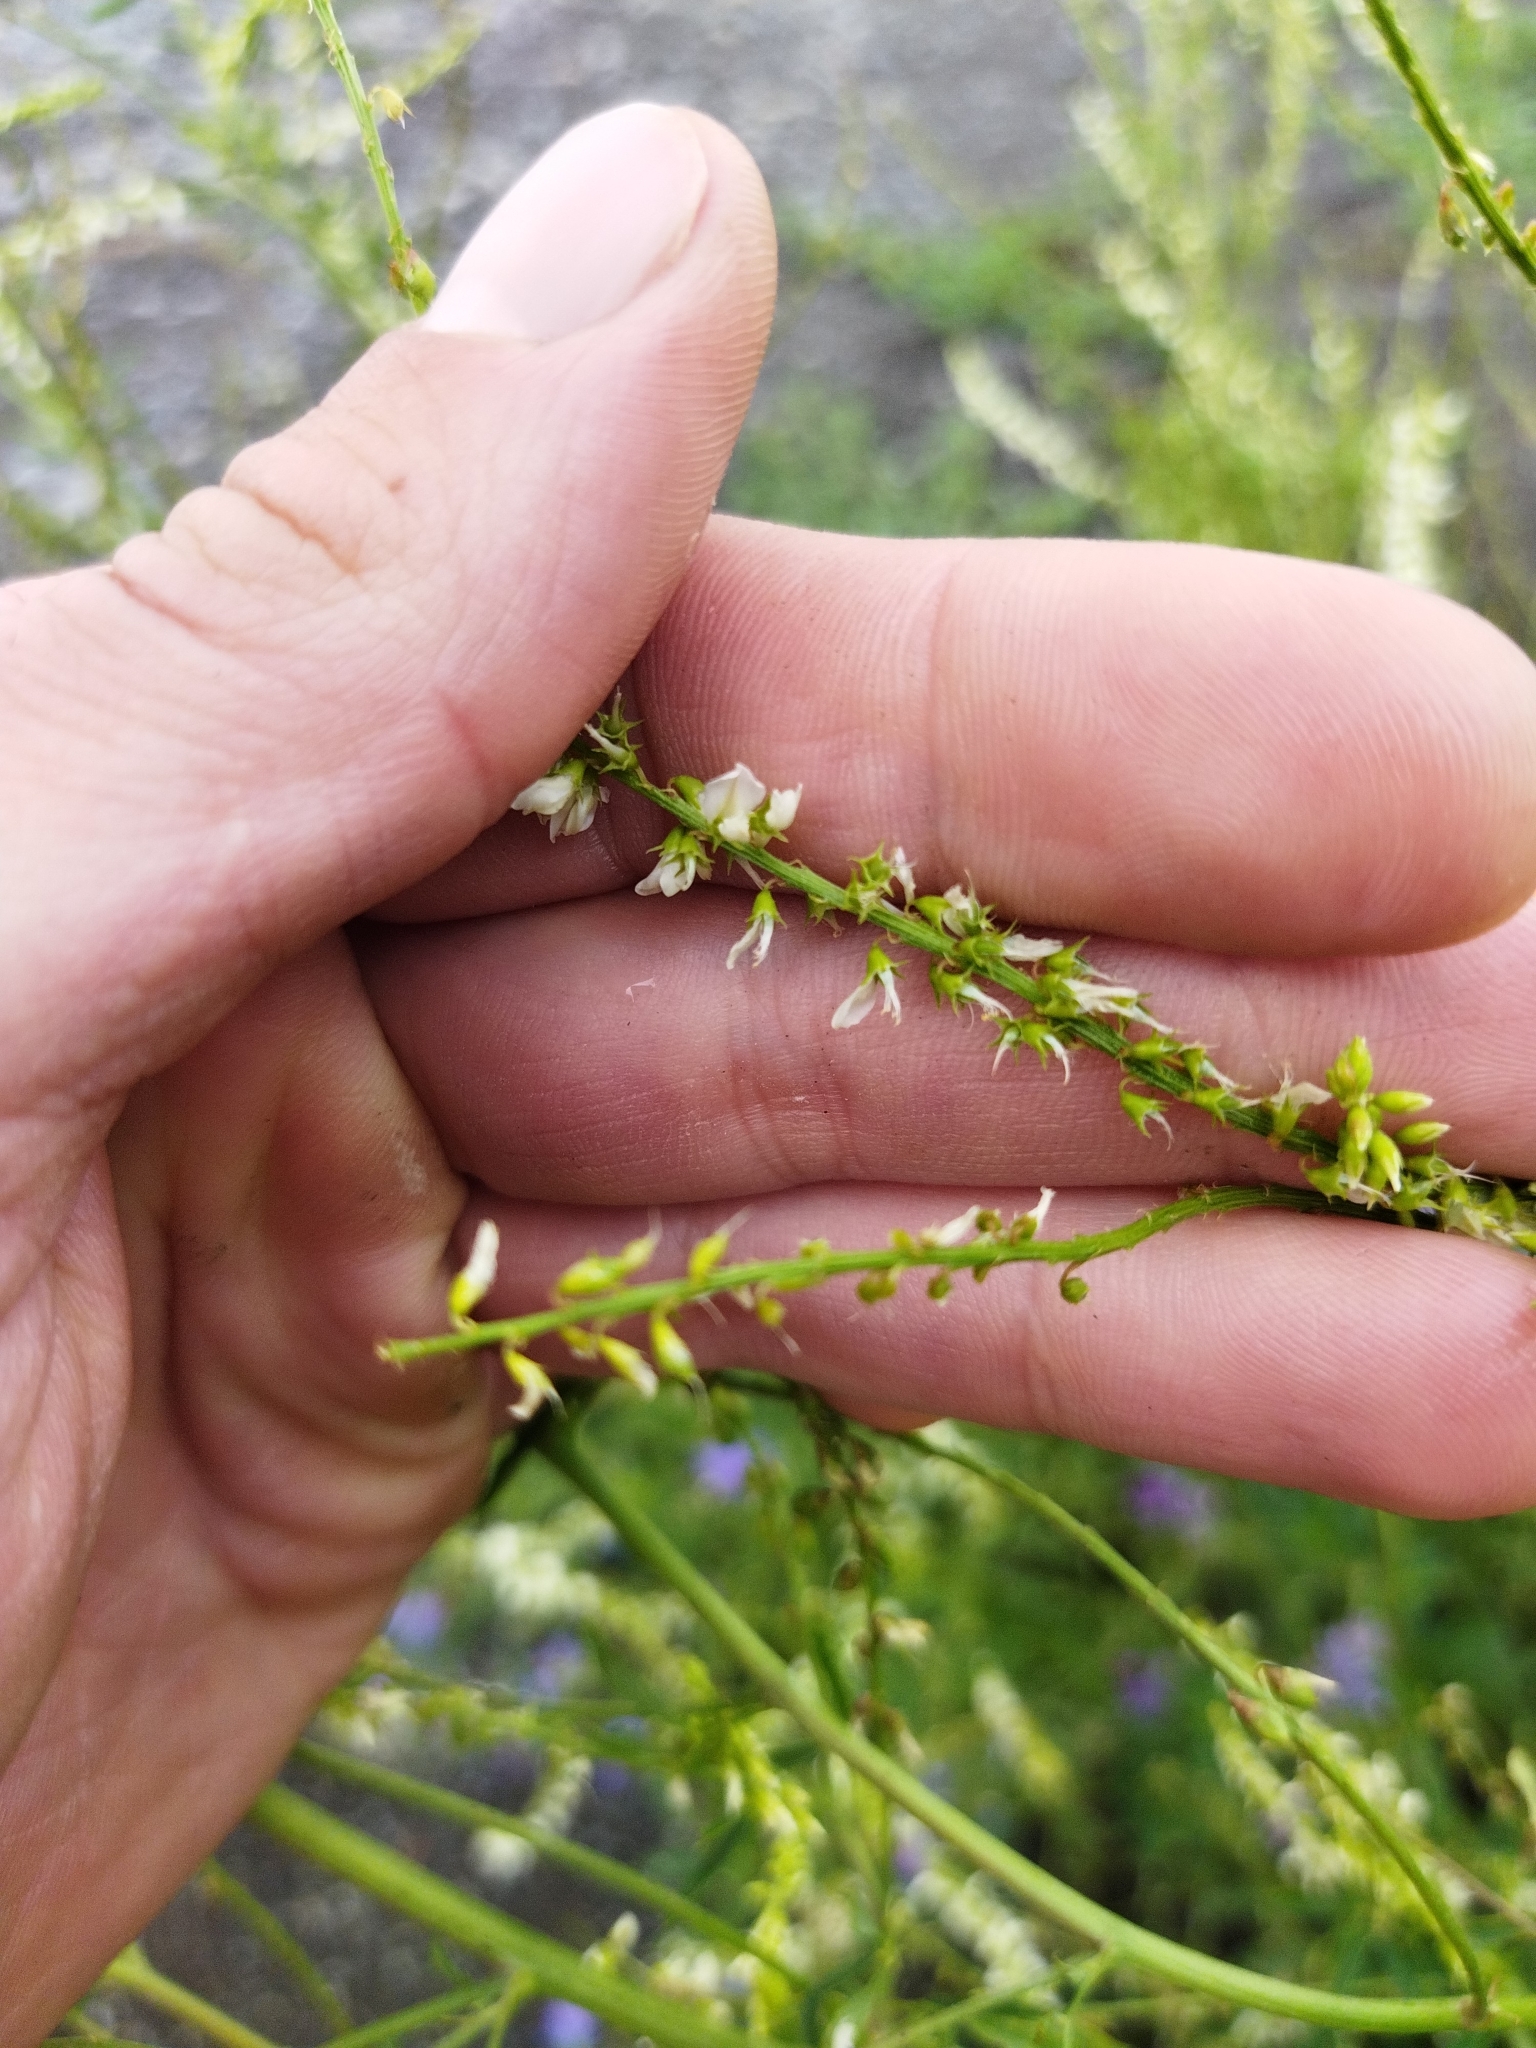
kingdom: Plantae
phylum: Tracheophyta
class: Magnoliopsida
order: Fabales
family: Fabaceae
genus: Melilotus
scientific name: Melilotus albus
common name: White melilot
